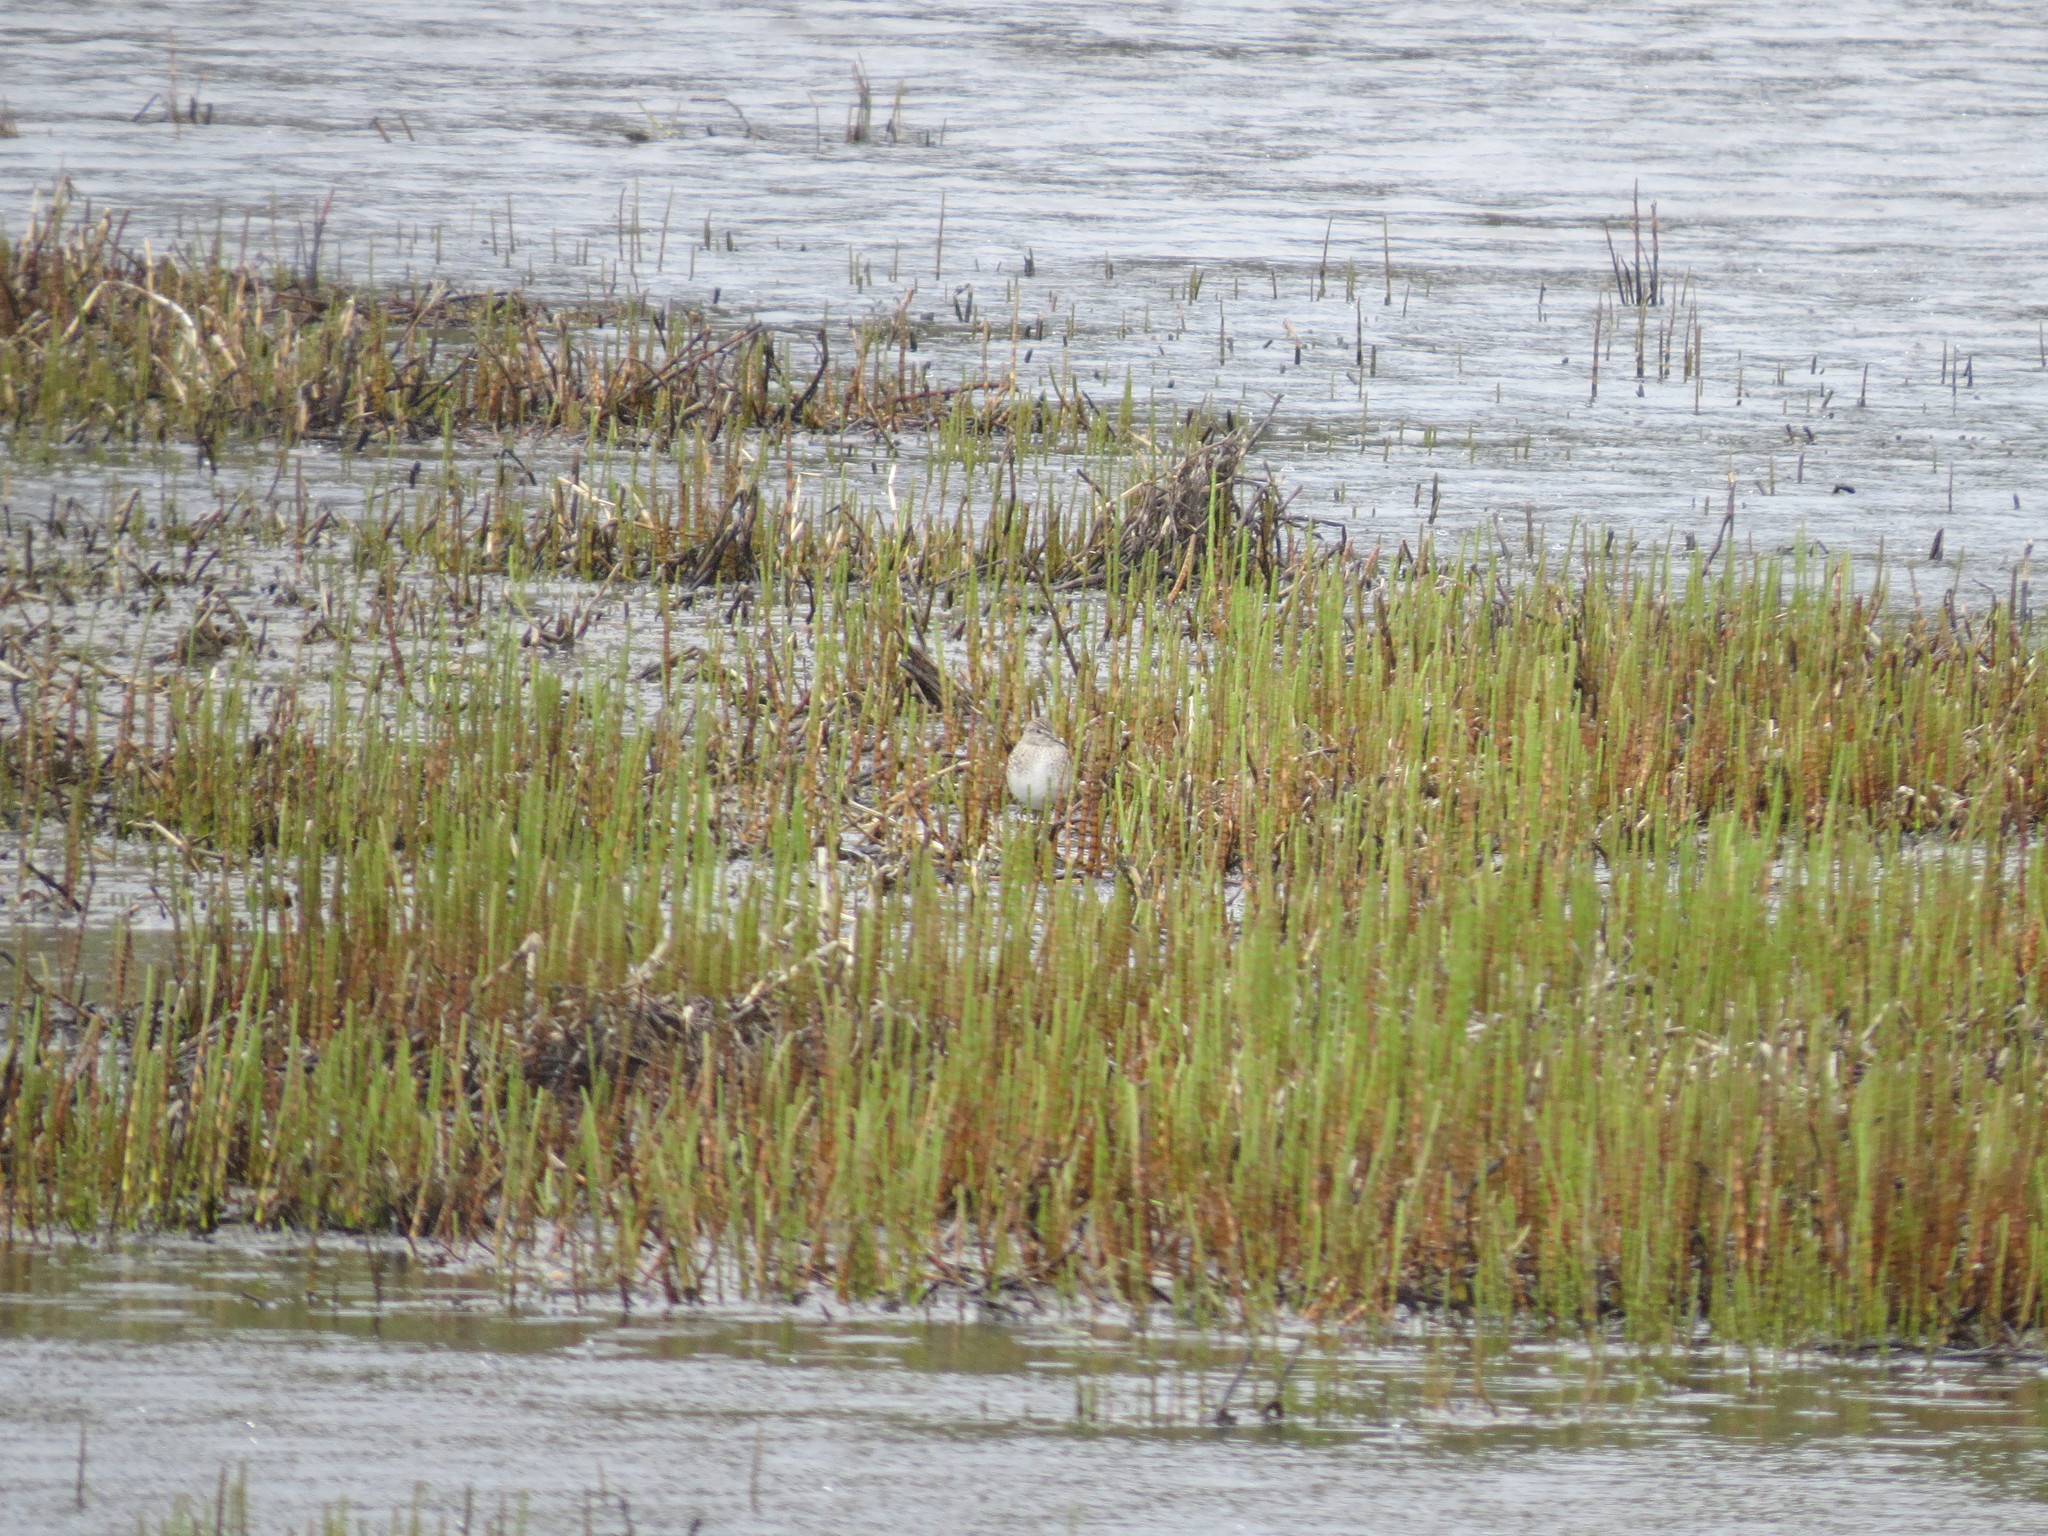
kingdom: Animalia
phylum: Chordata
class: Aves
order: Charadriiformes
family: Scolopacidae
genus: Tringa
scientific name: Tringa glareola
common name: Wood sandpiper
